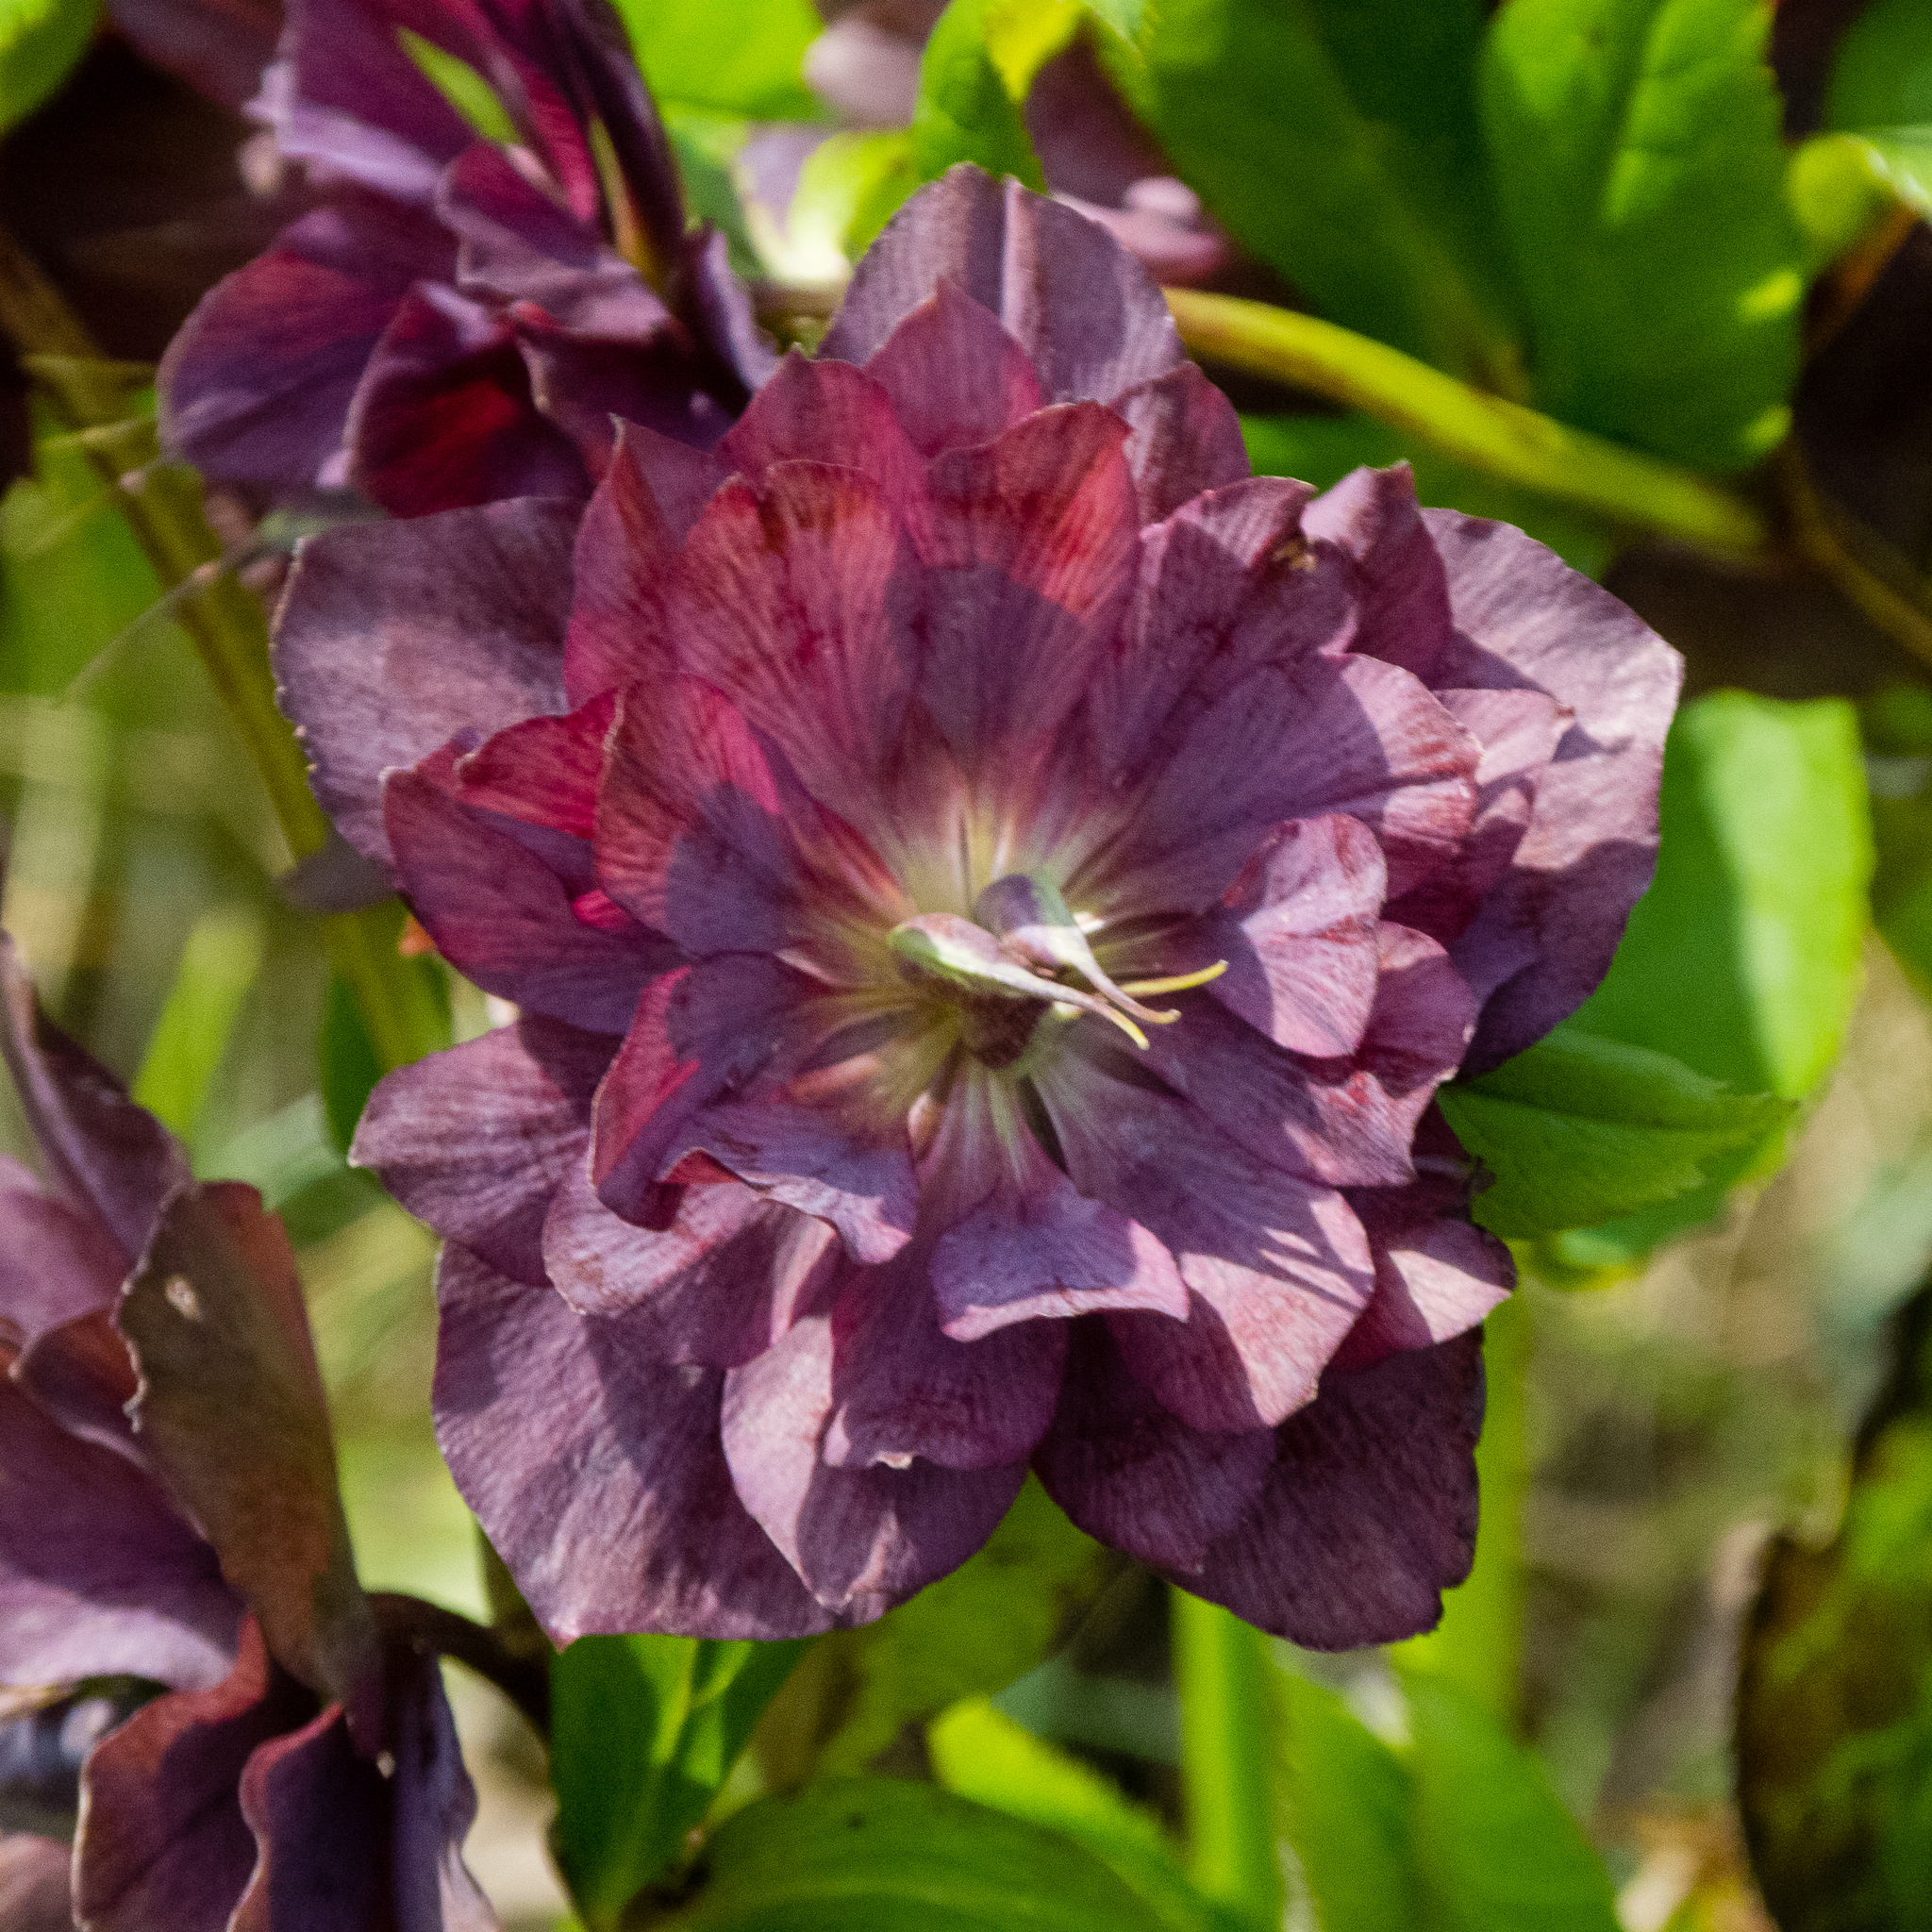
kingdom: Plantae
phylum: Tracheophyta
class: Magnoliopsida
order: Ranunculales
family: Ranunculaceae
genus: Helleborus
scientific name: Helleborus orientalis
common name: Lenten-rose
